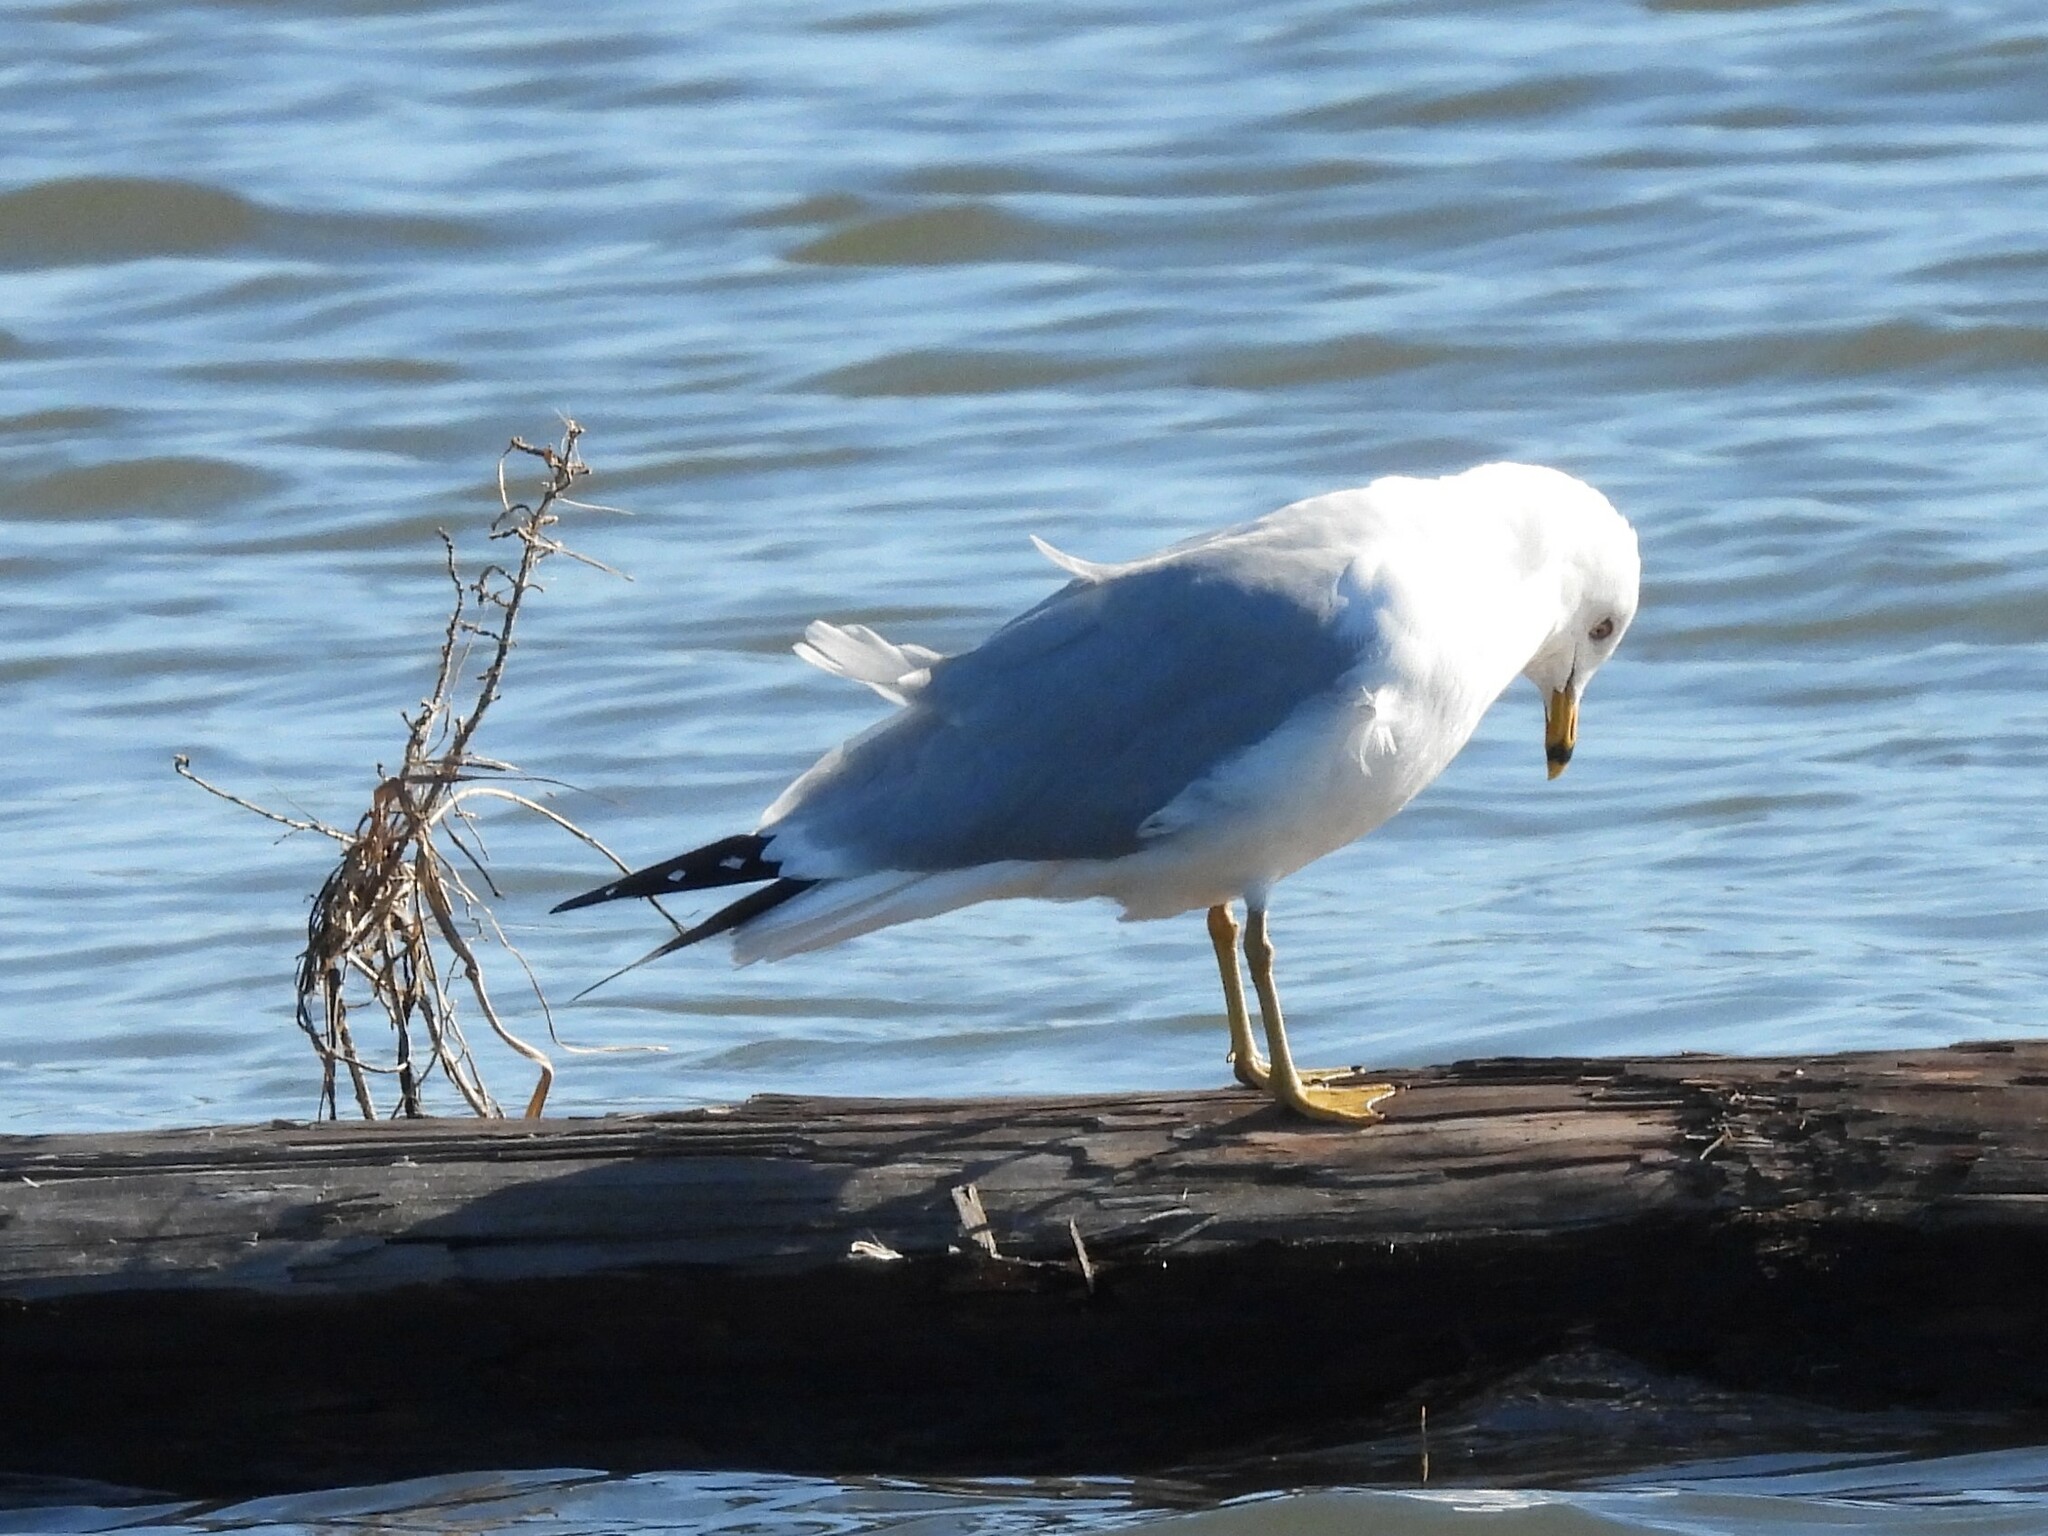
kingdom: Animalia
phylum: Chordata
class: Aves
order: Charadriiformes
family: Laridae
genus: Larus
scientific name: Larus delawarensis
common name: Ring-billed gull
